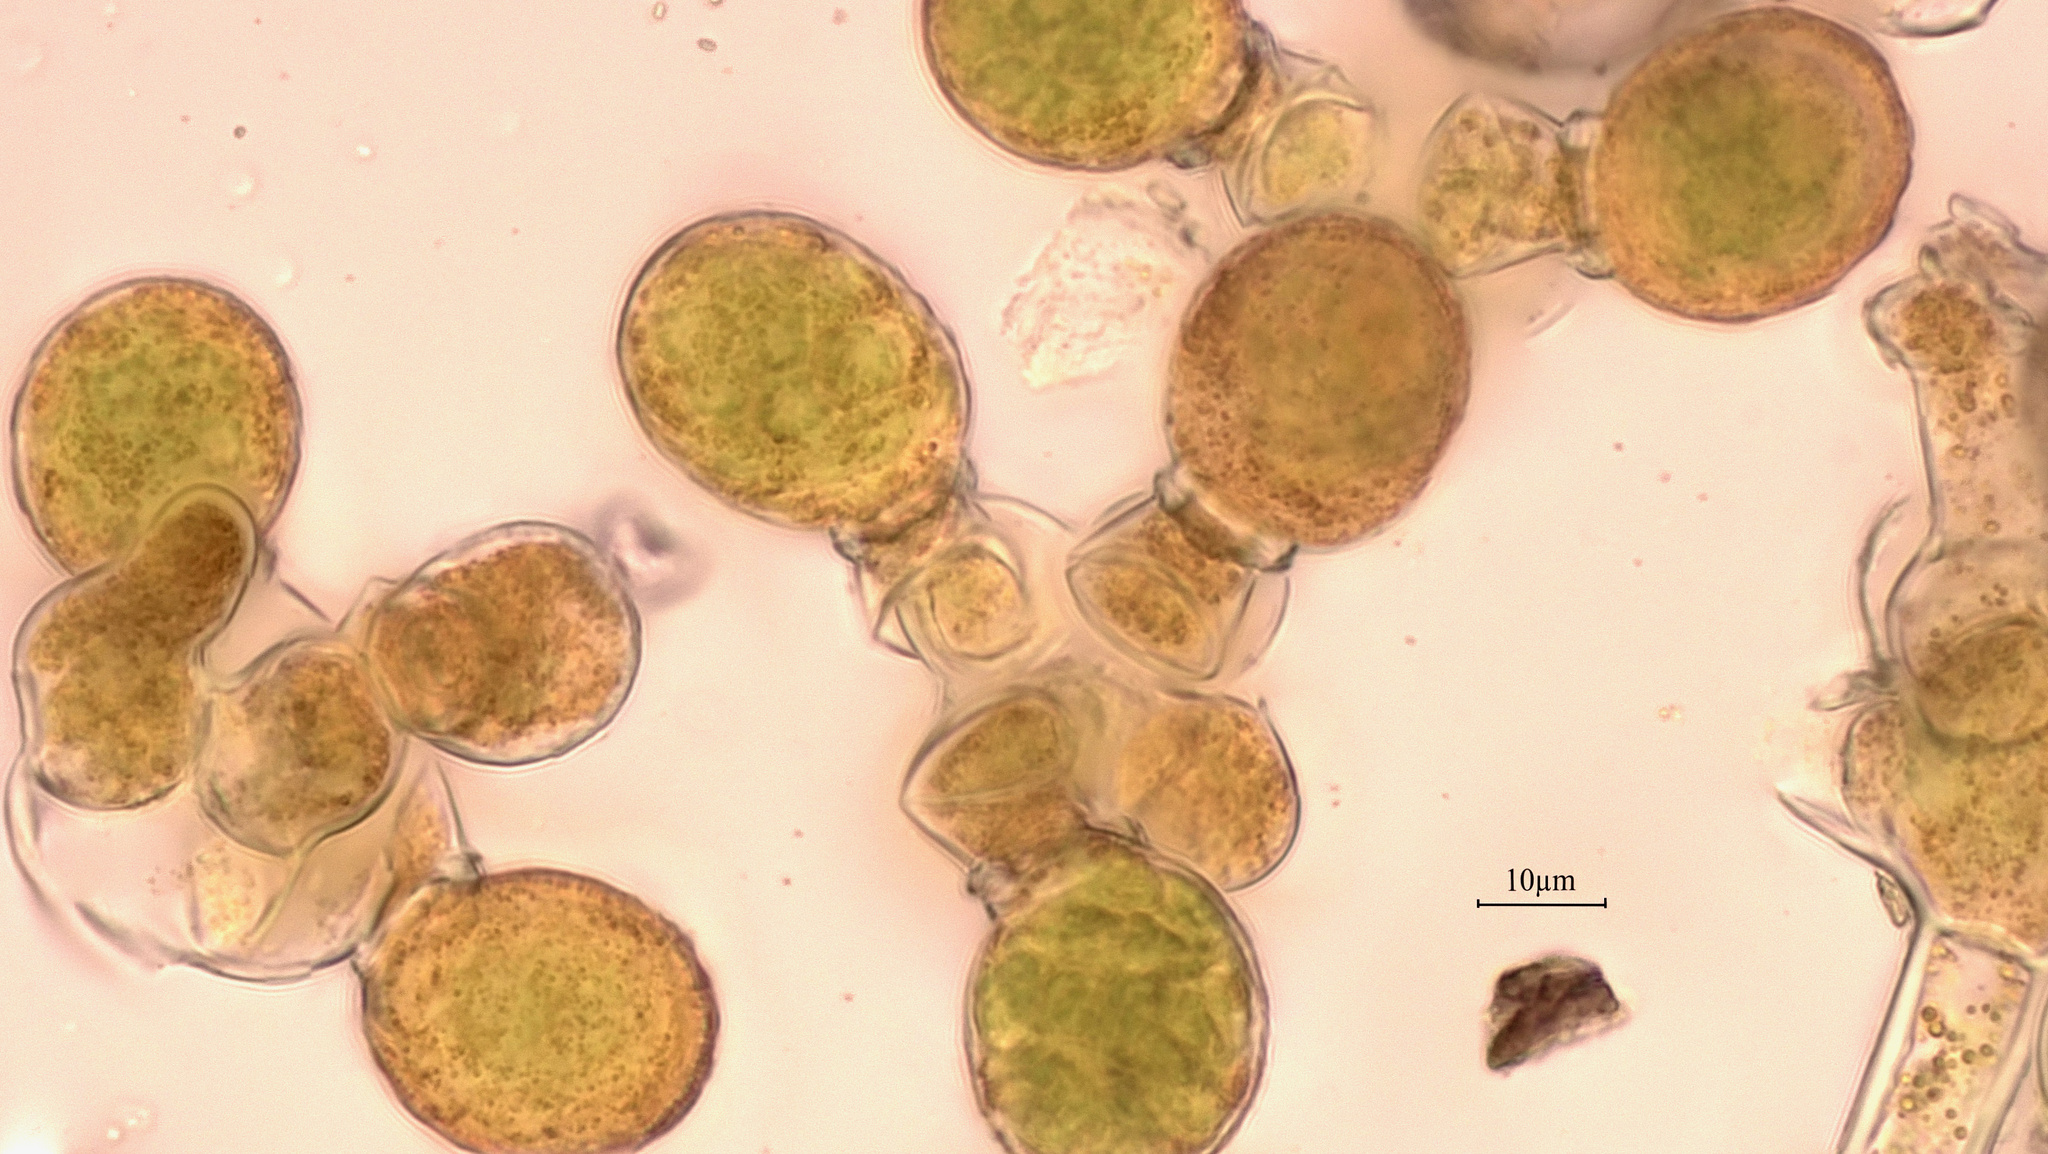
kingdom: Plantae
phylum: Chlorophyta
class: Ulvophyceae
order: Trentepohliales
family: Trentepohliaceae
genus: Cephaleuros
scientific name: Cephaleuros
